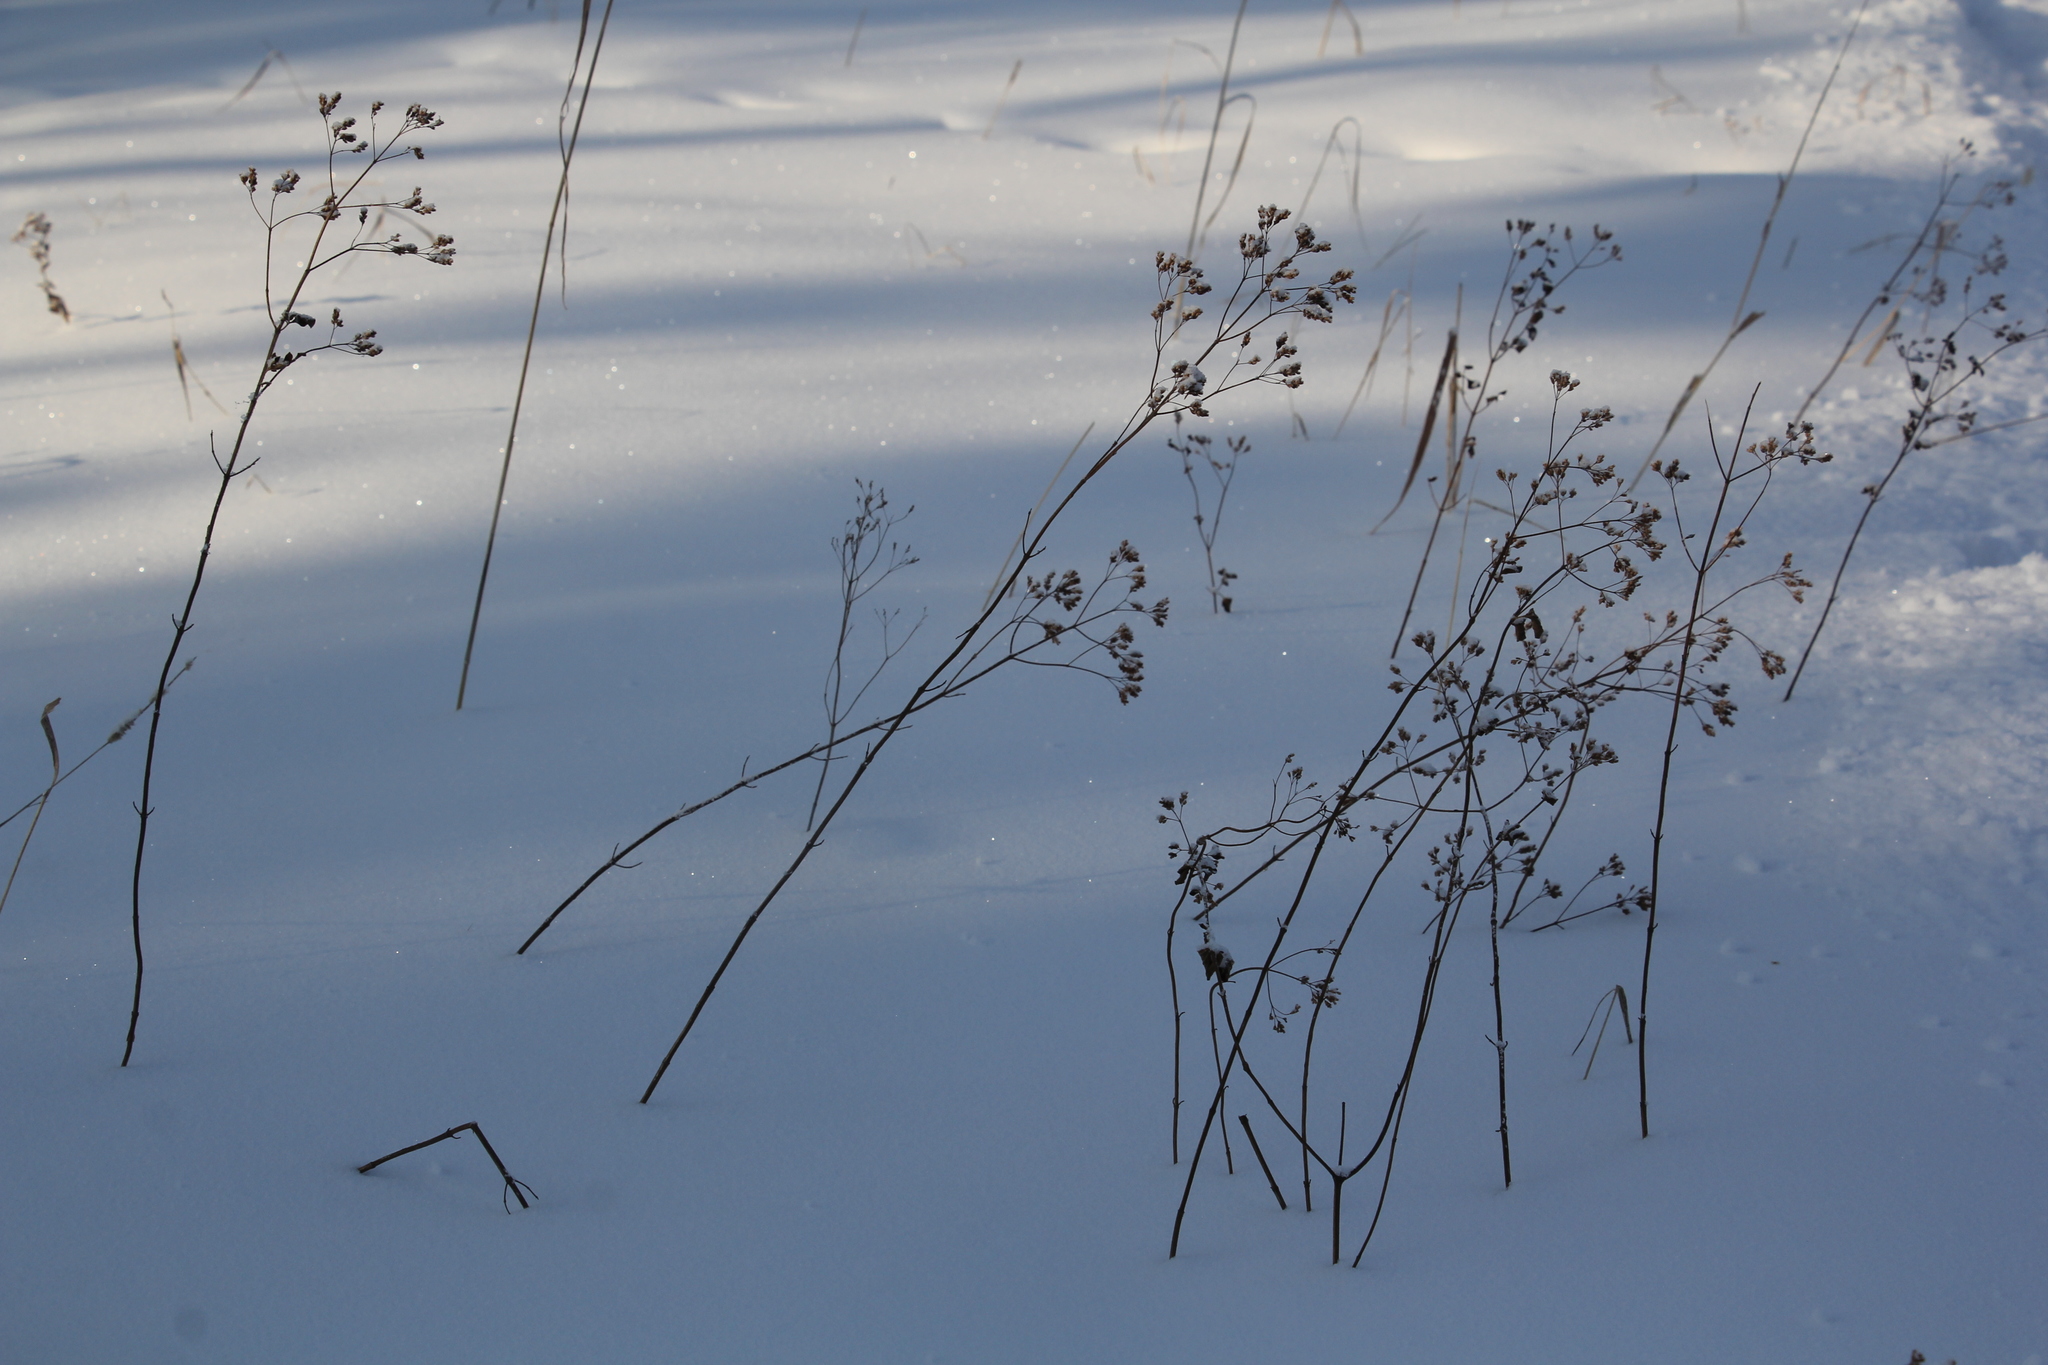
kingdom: Plantae
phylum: Tracheophyta
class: Magnoliopsida
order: Lamiales
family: Lamiaceae
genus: Origanum
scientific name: Origanum vulgare
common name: Wild marjoram
